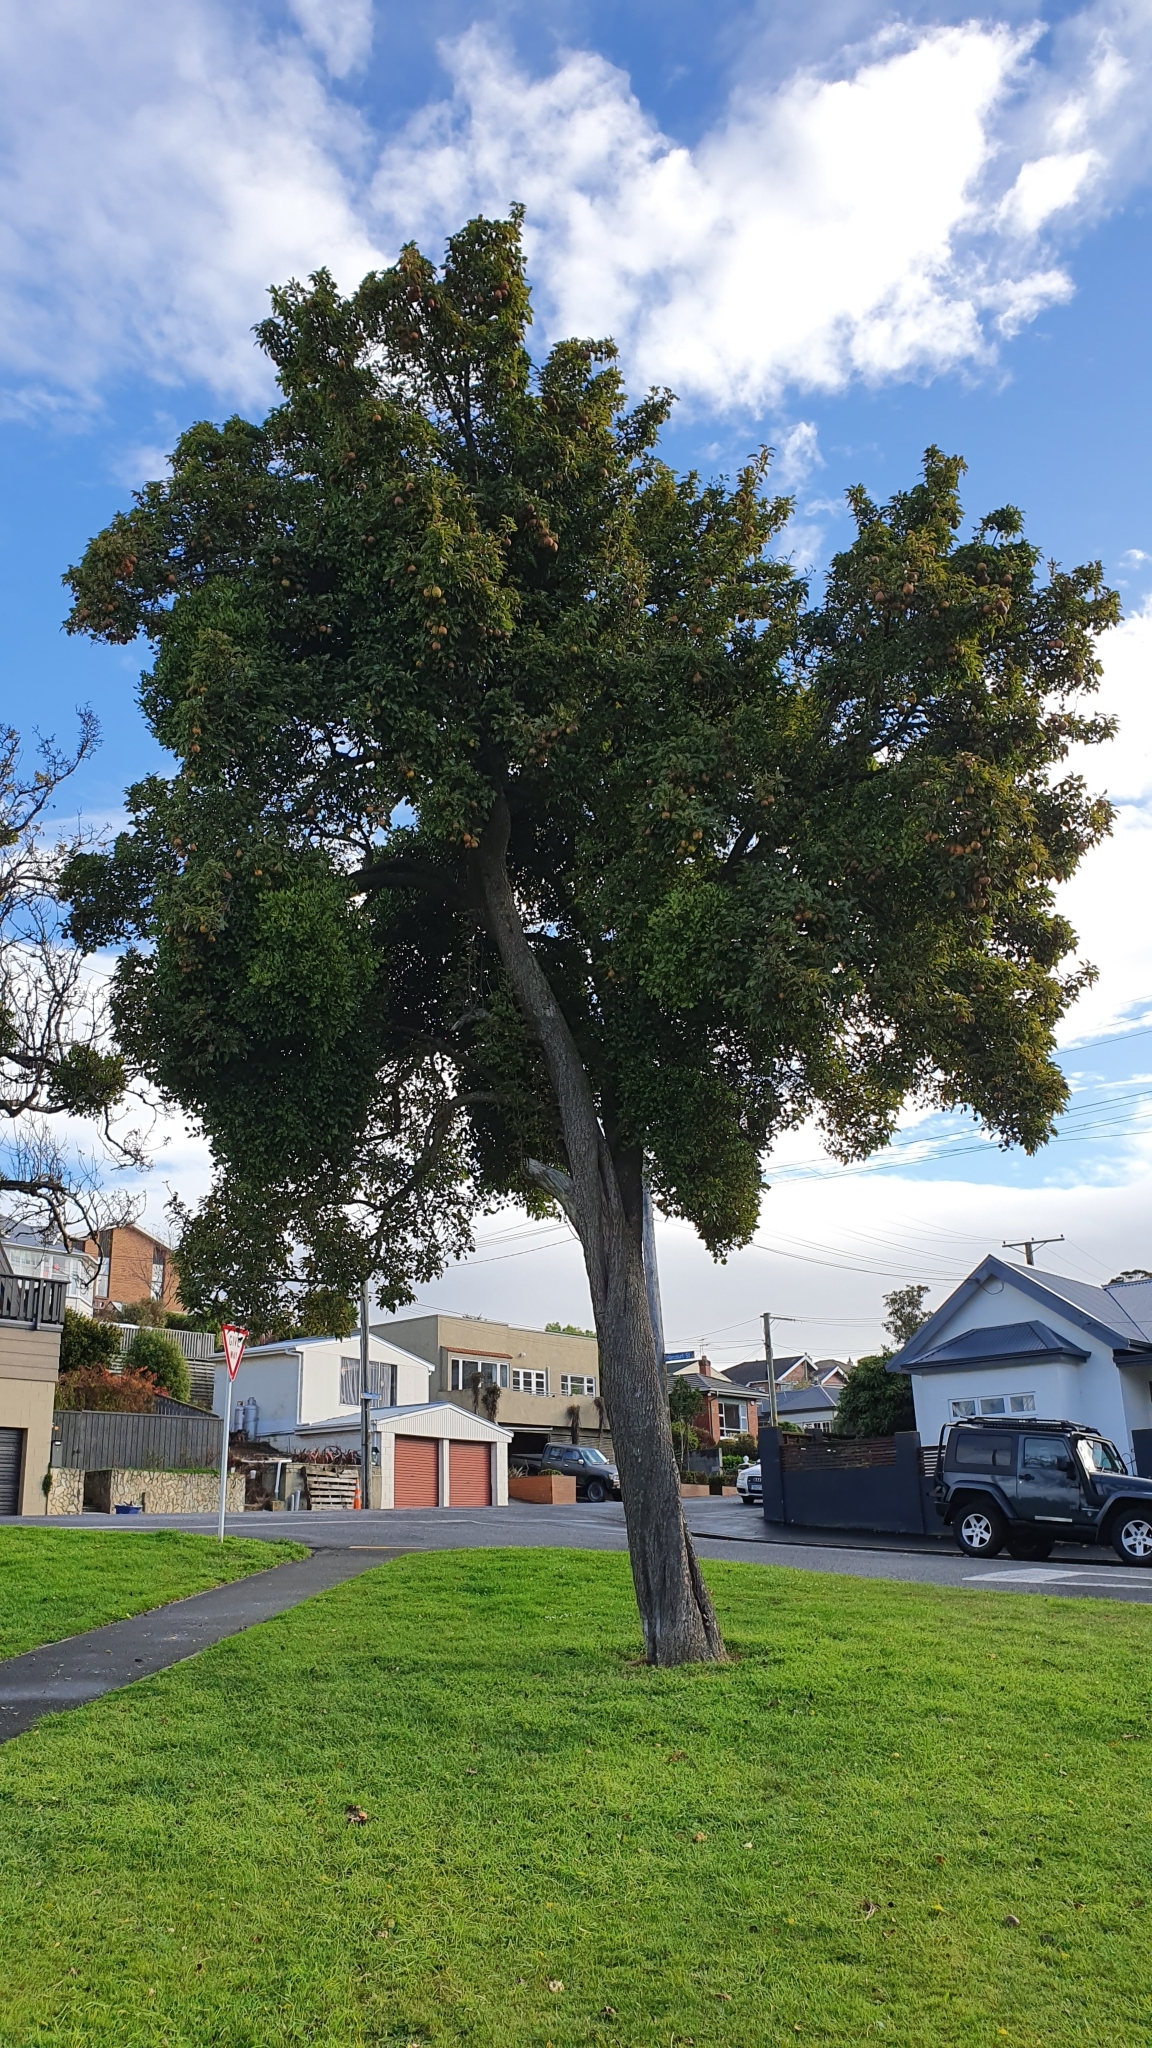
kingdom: Plantae
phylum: Tracheophyta
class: Magnoliopsida
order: Santalales
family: Loranthaceae
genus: Ileostylus
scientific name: Ileostylus micranthus
